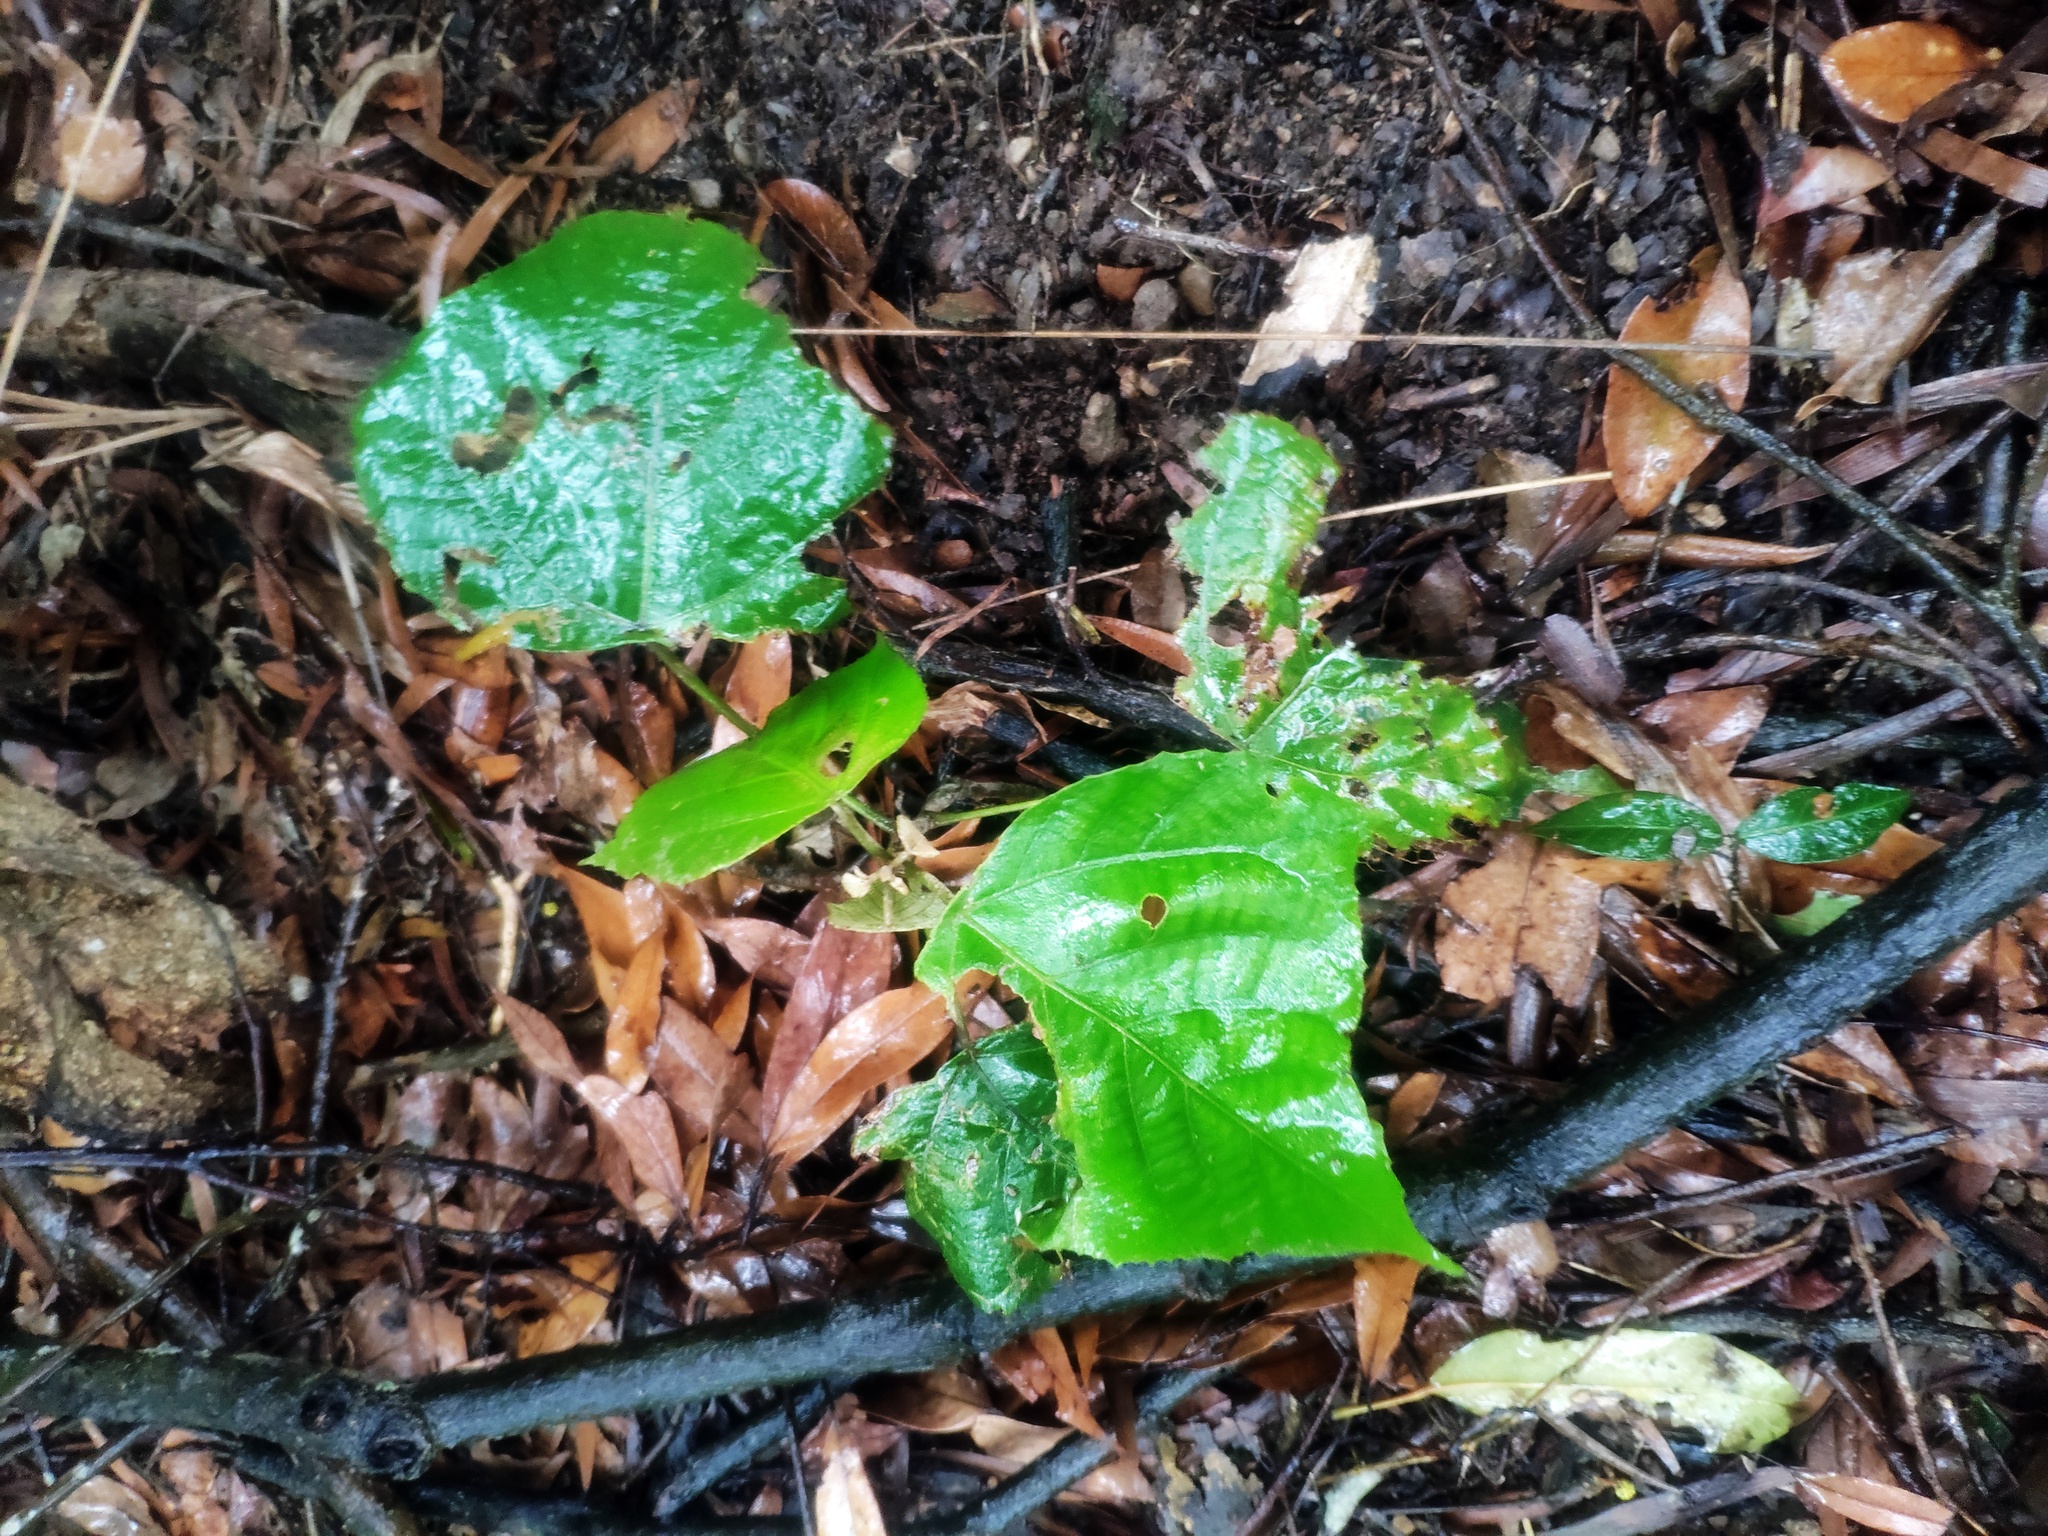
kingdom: Plantae
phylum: Tracheophyta
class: Magnoliopsida
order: Malpighiales
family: Euphorbiaceae
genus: Mallotus
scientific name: Mallotus paniculatus
